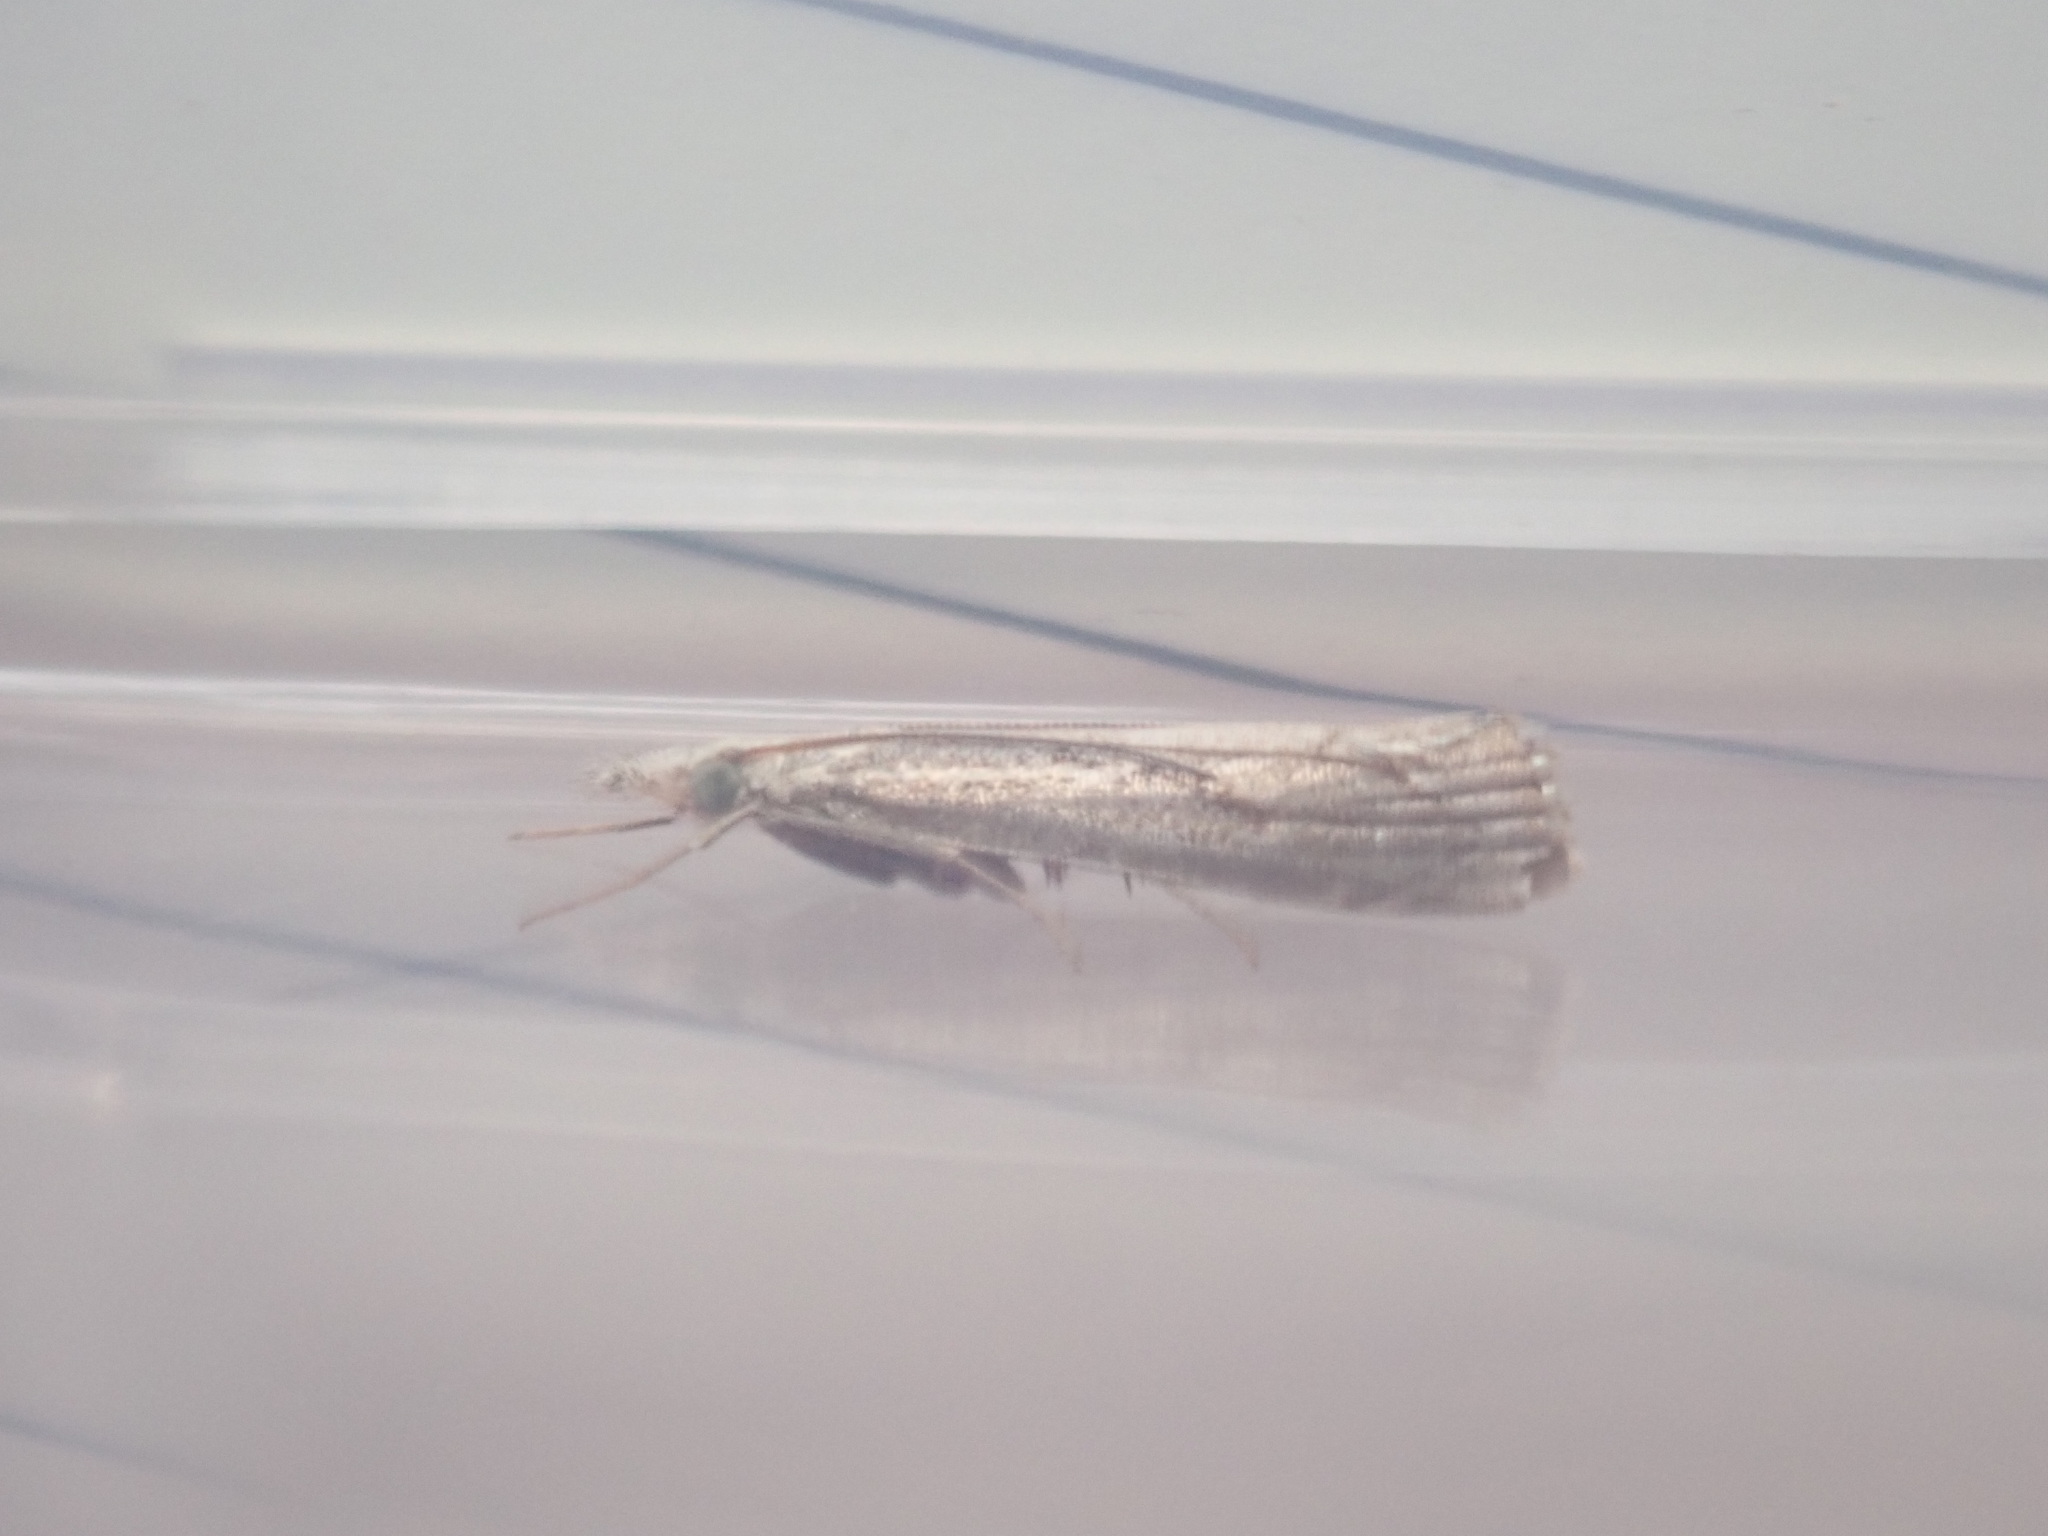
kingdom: Animalia
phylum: Arthropoda
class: Insecta
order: Lepidoptera
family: Crambidae
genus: Agriphila
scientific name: Agriphila geniculea
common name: Elbow-stripe grass-veneer
